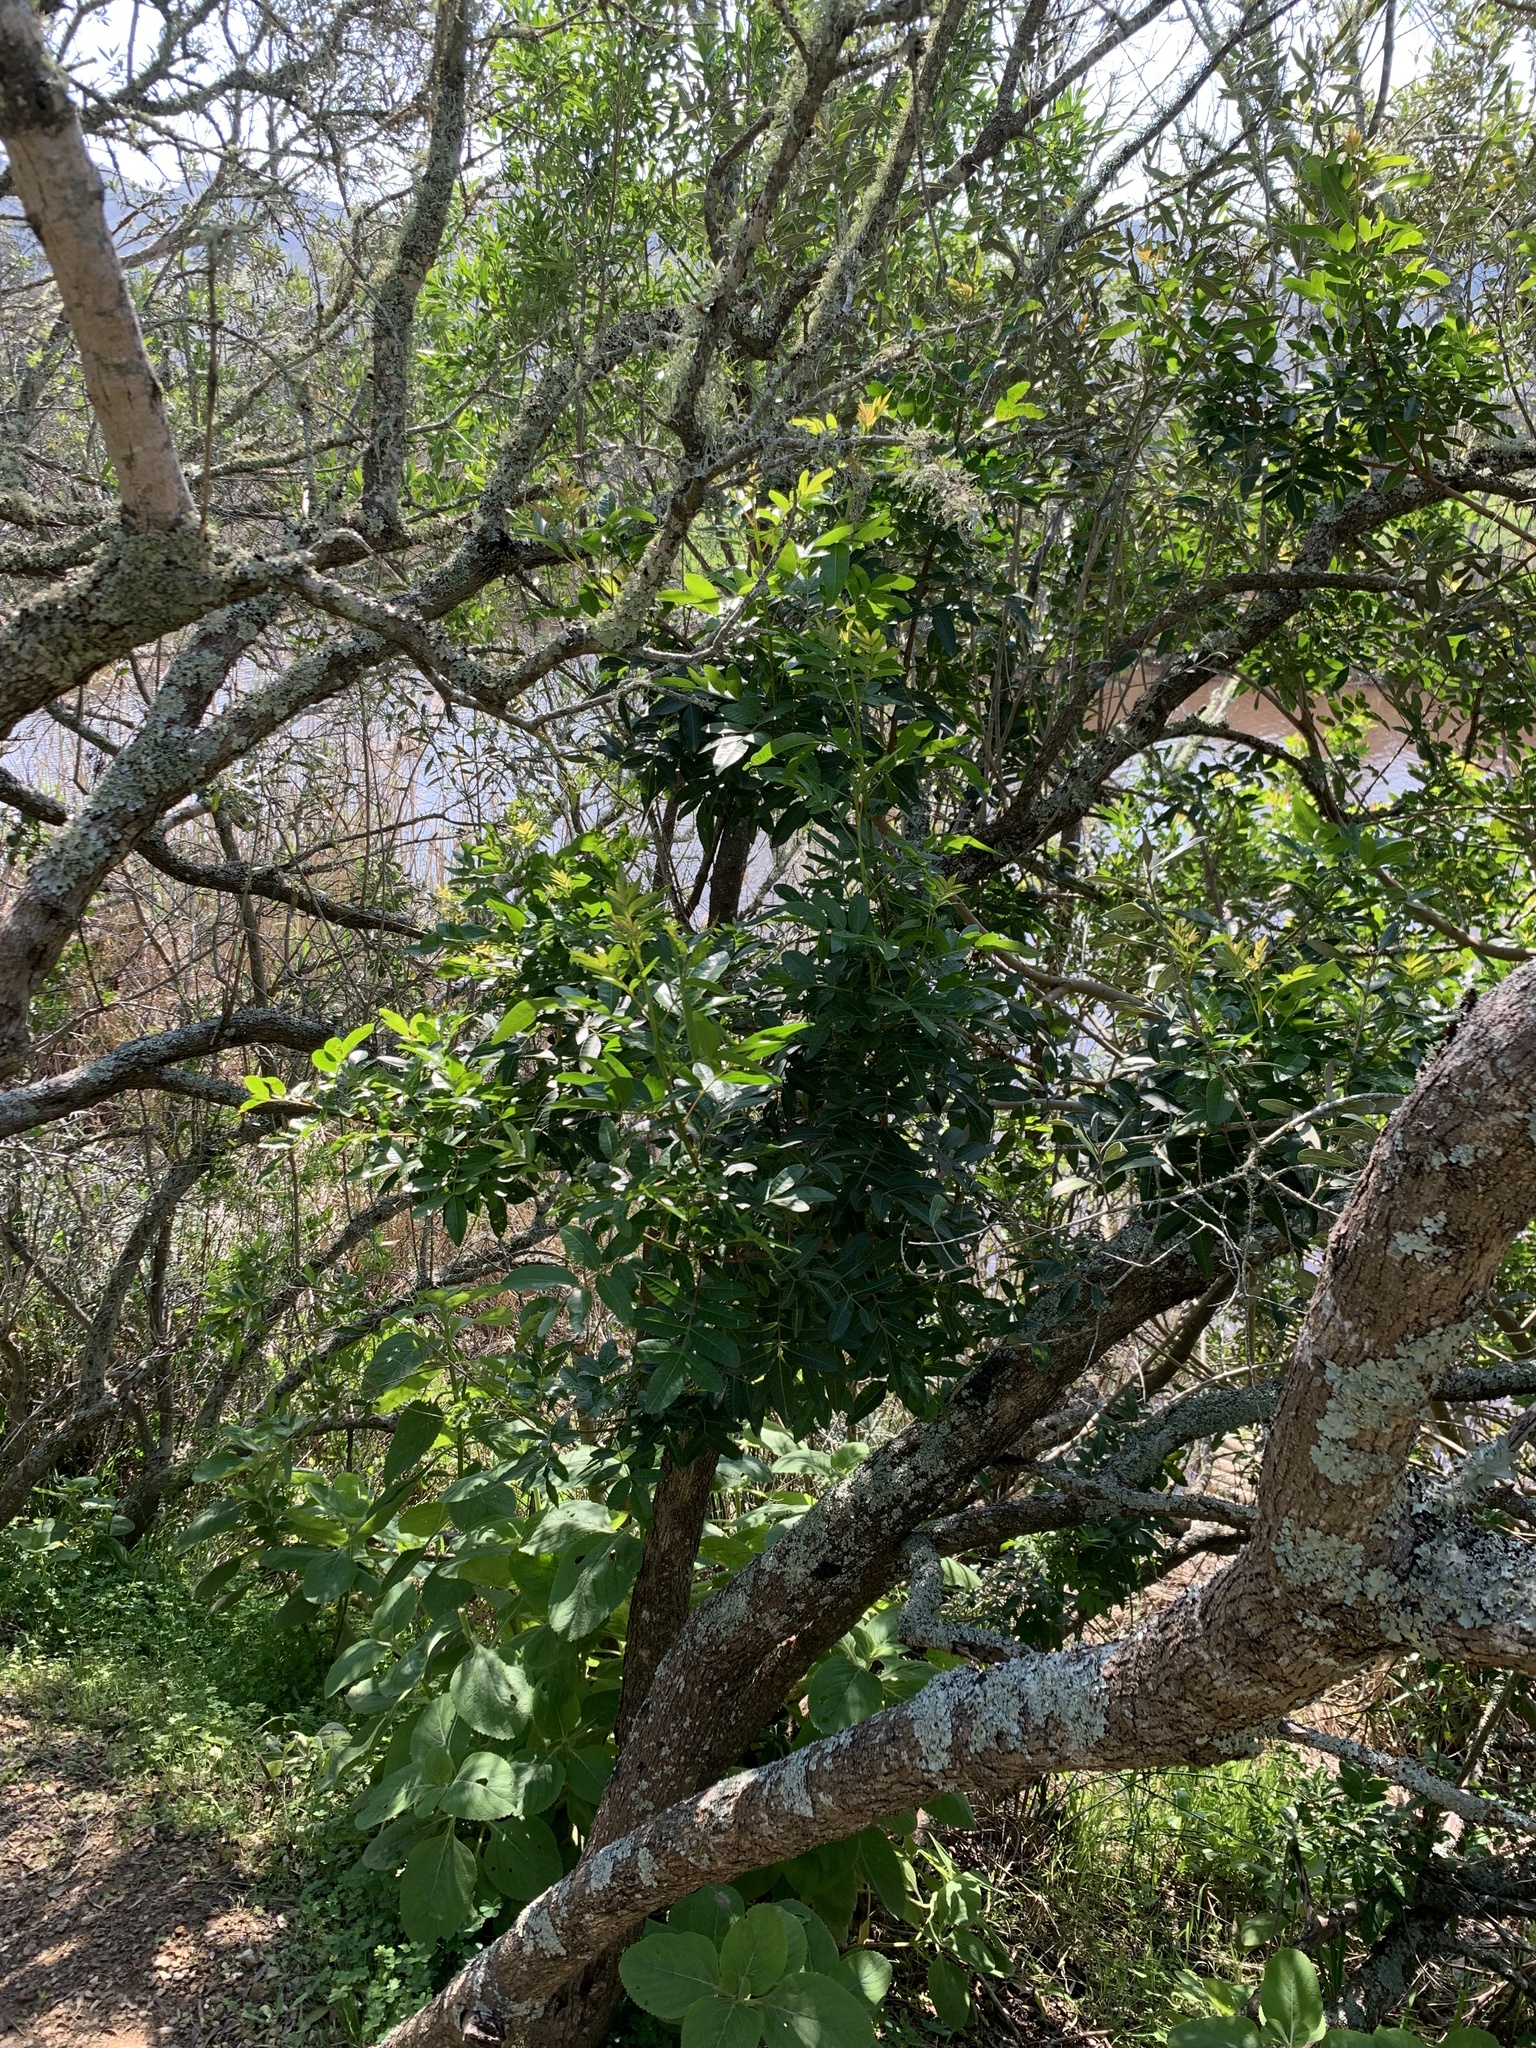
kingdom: Plantae
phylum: Tracheophyta
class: Magnoliopsida
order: Sapindales
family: Anacardiaceae
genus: Schinus
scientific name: Schinus terebinthifolia
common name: Brazilian peppertree
